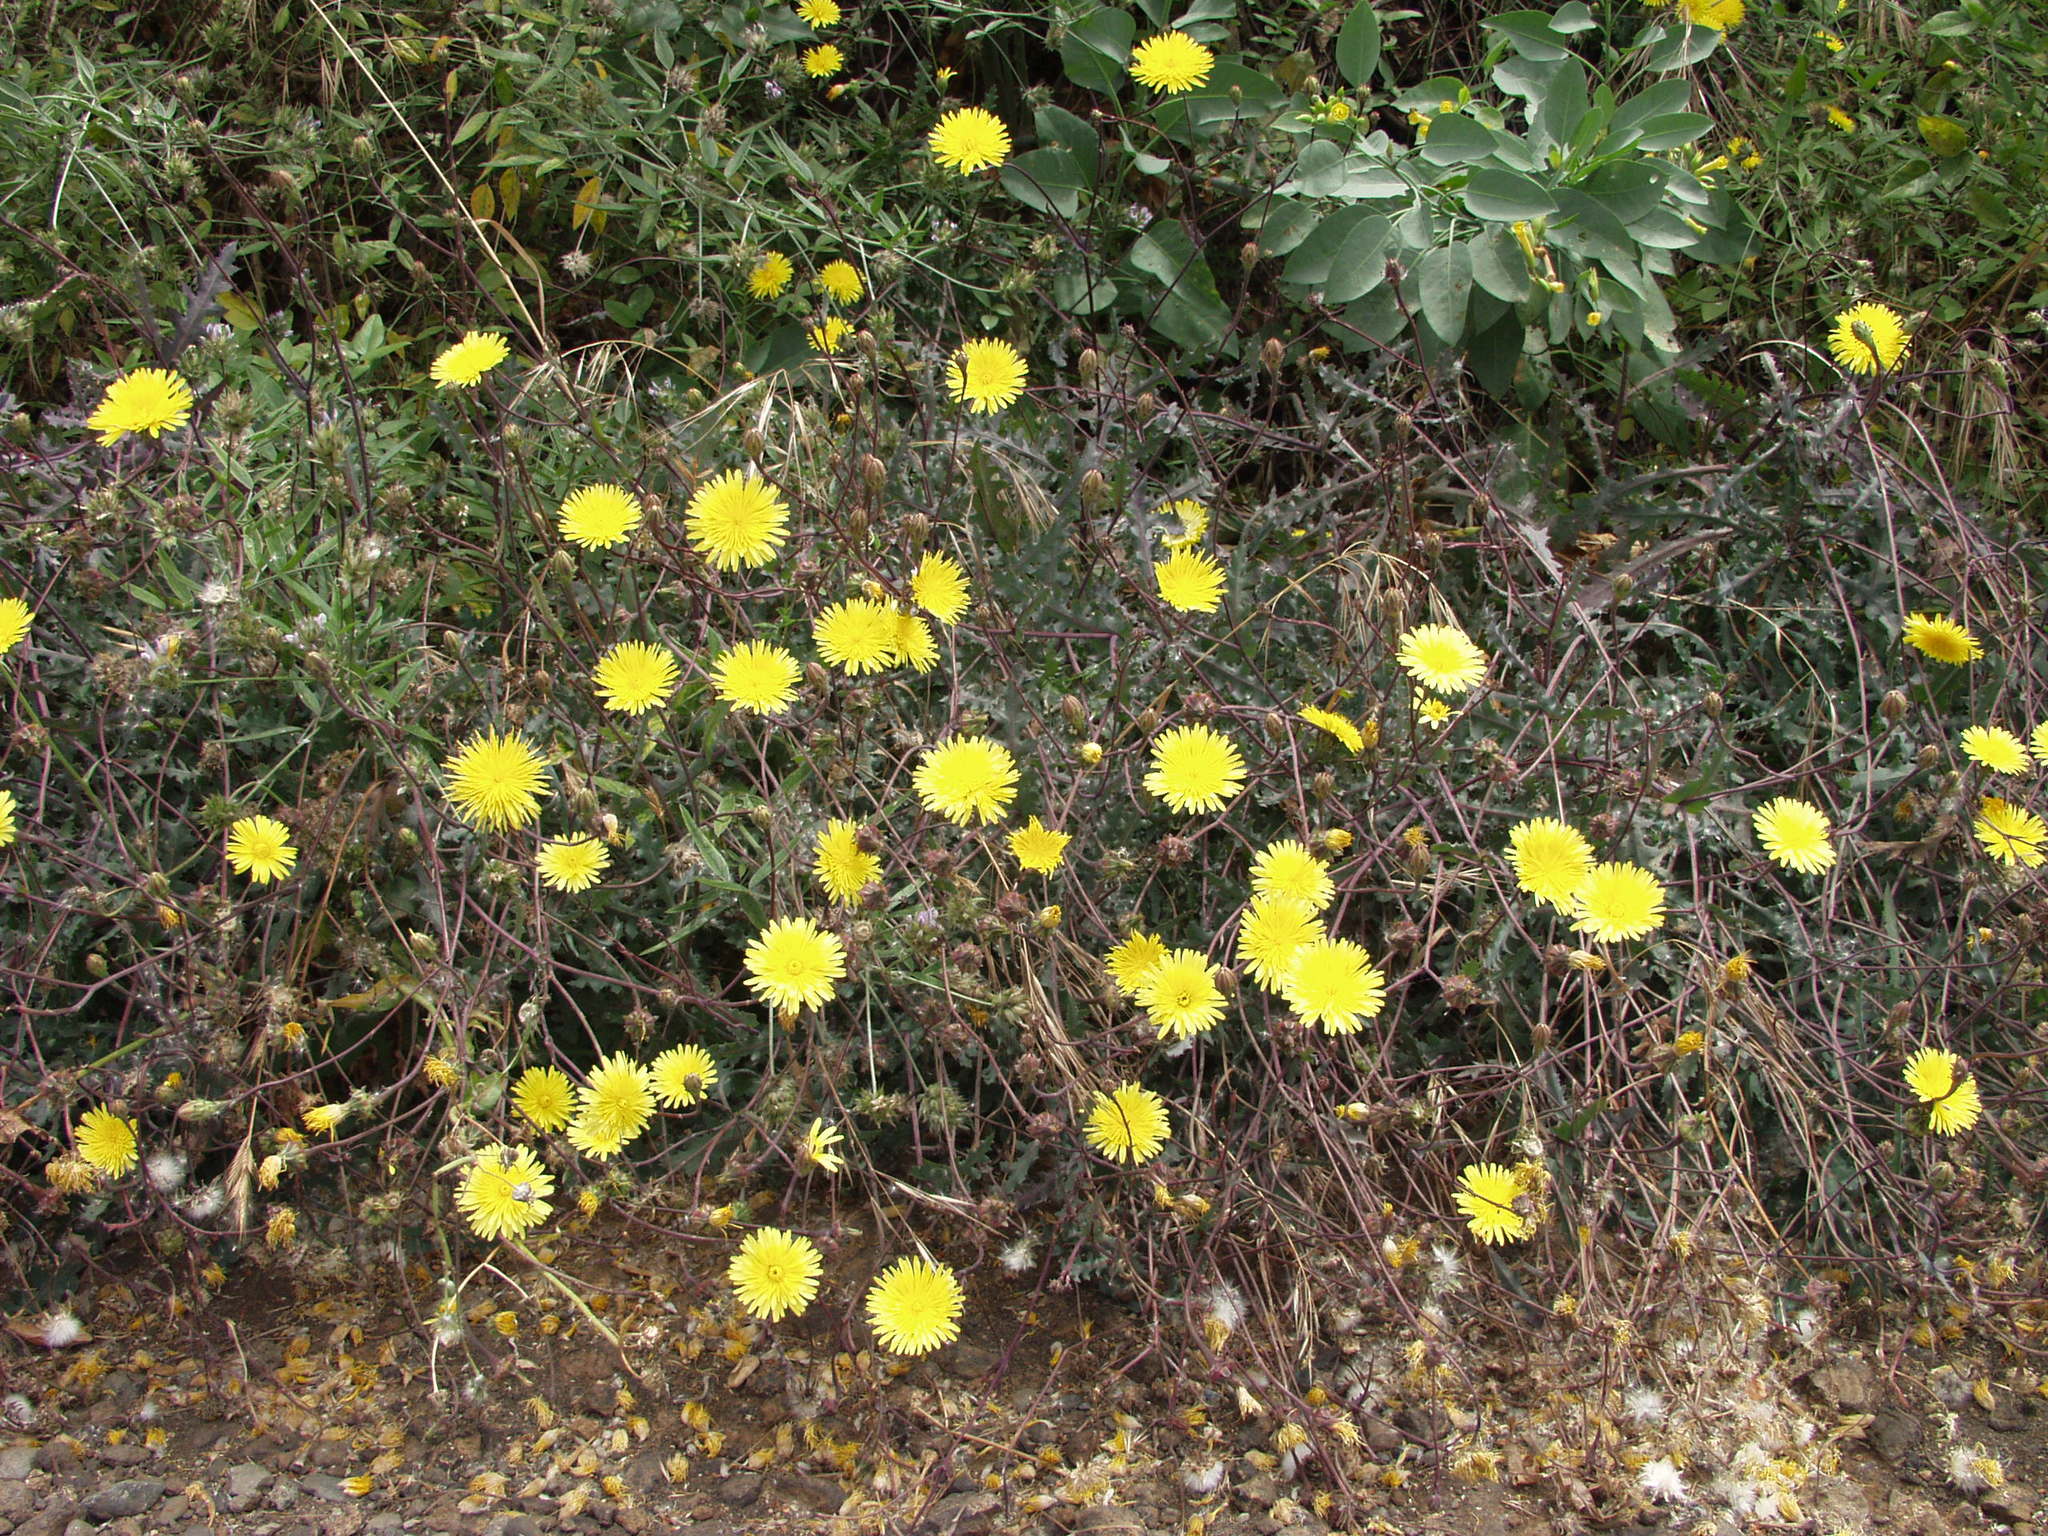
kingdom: Plantae
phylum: Tracheophyta
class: Magnoliopsida
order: Asterales
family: Asteraceae
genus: Reichardia
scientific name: Reichardia ligulata
